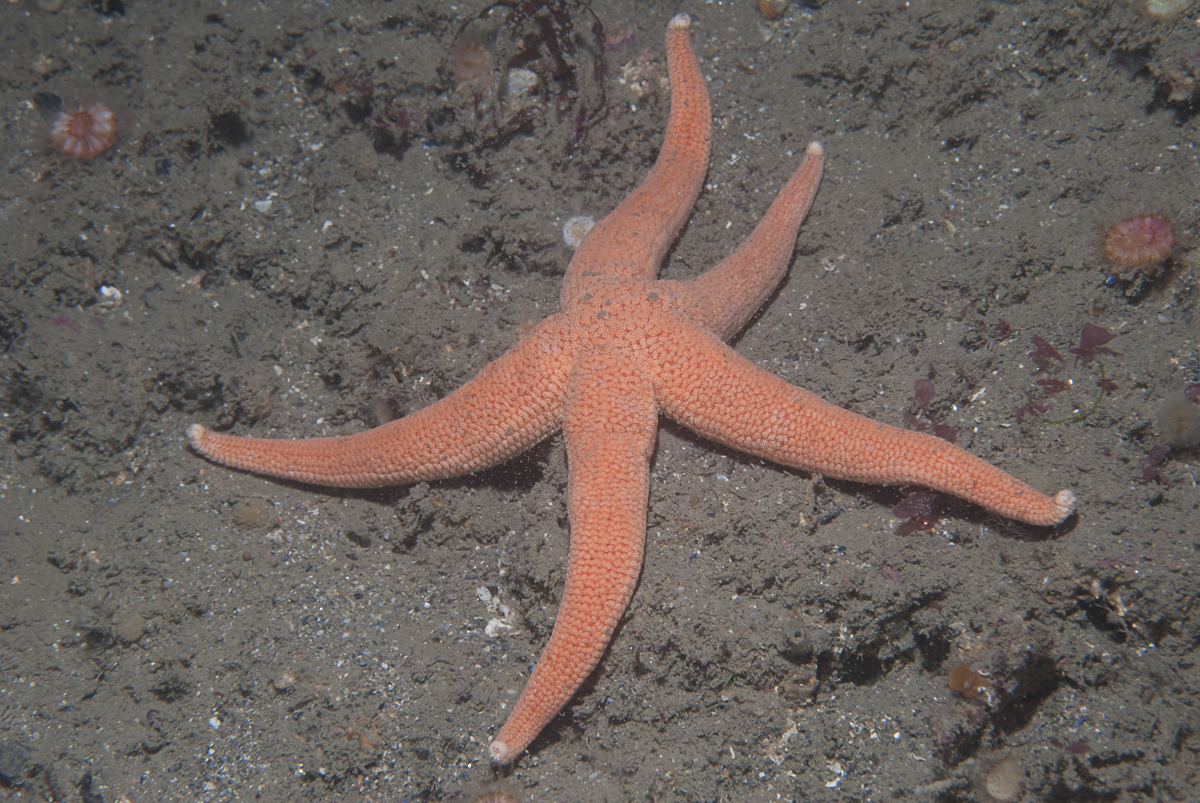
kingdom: Animalia
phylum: Echinodermata
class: Asteroidea
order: Forcipulatida
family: Stichasteridae
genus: Stichastrella
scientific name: Stichastrella rosea
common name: Rosy starfish
